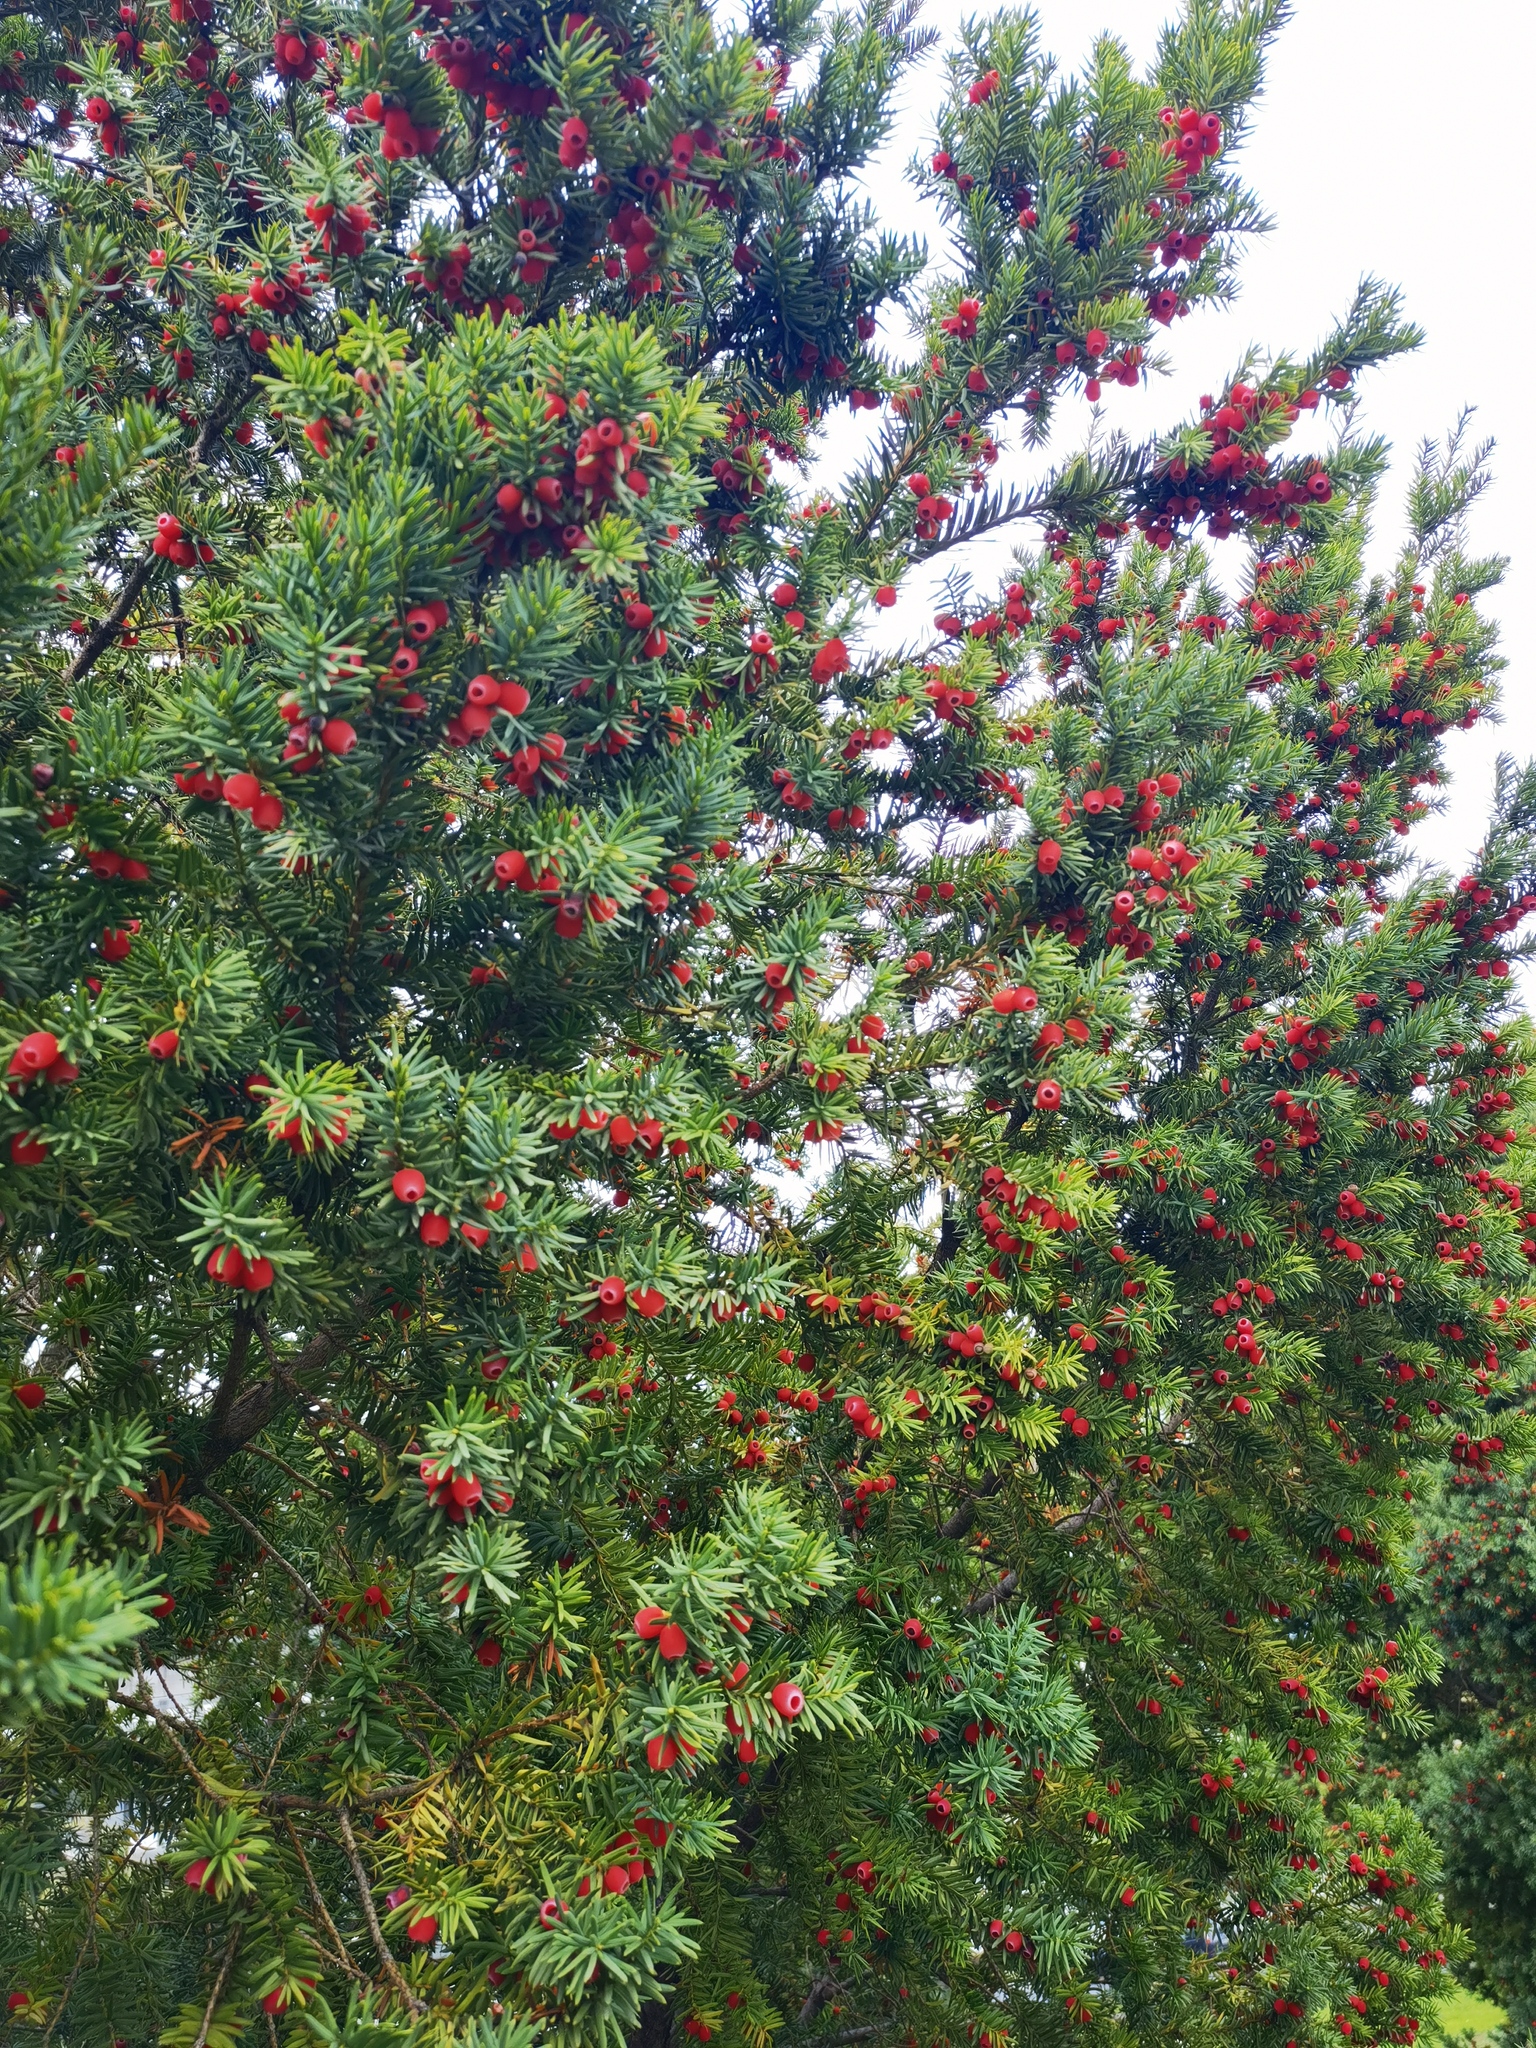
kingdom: Plantae
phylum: Tracheophyta
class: Pinopsida
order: Pinales
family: Taxaceae
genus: Taxus
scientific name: Taxus baccata
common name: Yew
